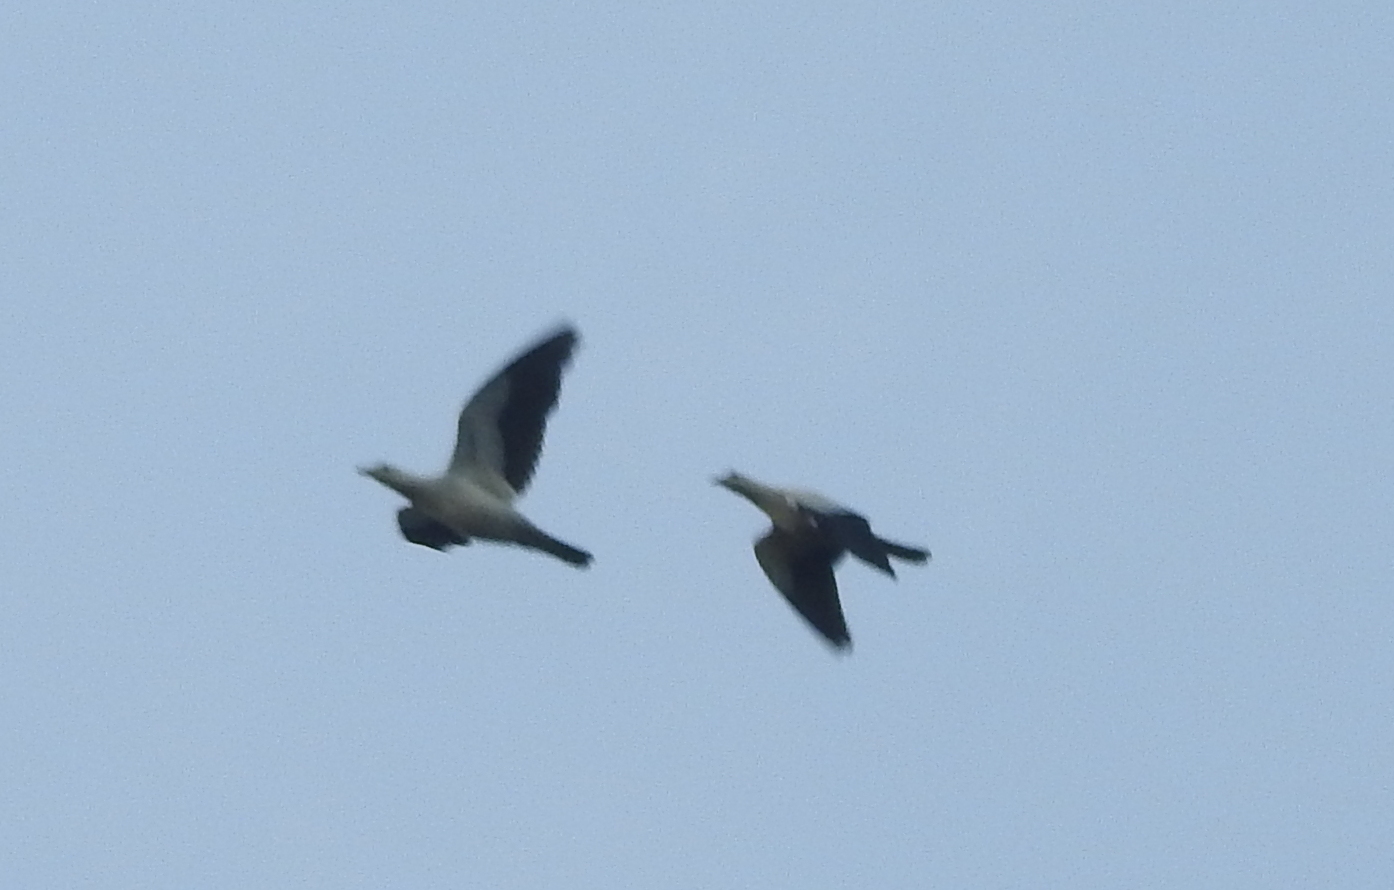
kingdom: Animalia
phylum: Chordata
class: Aves
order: Columbiformes
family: Columbidae
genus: Ducula
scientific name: Ducula bicolor
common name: Pied imperial pigeon
